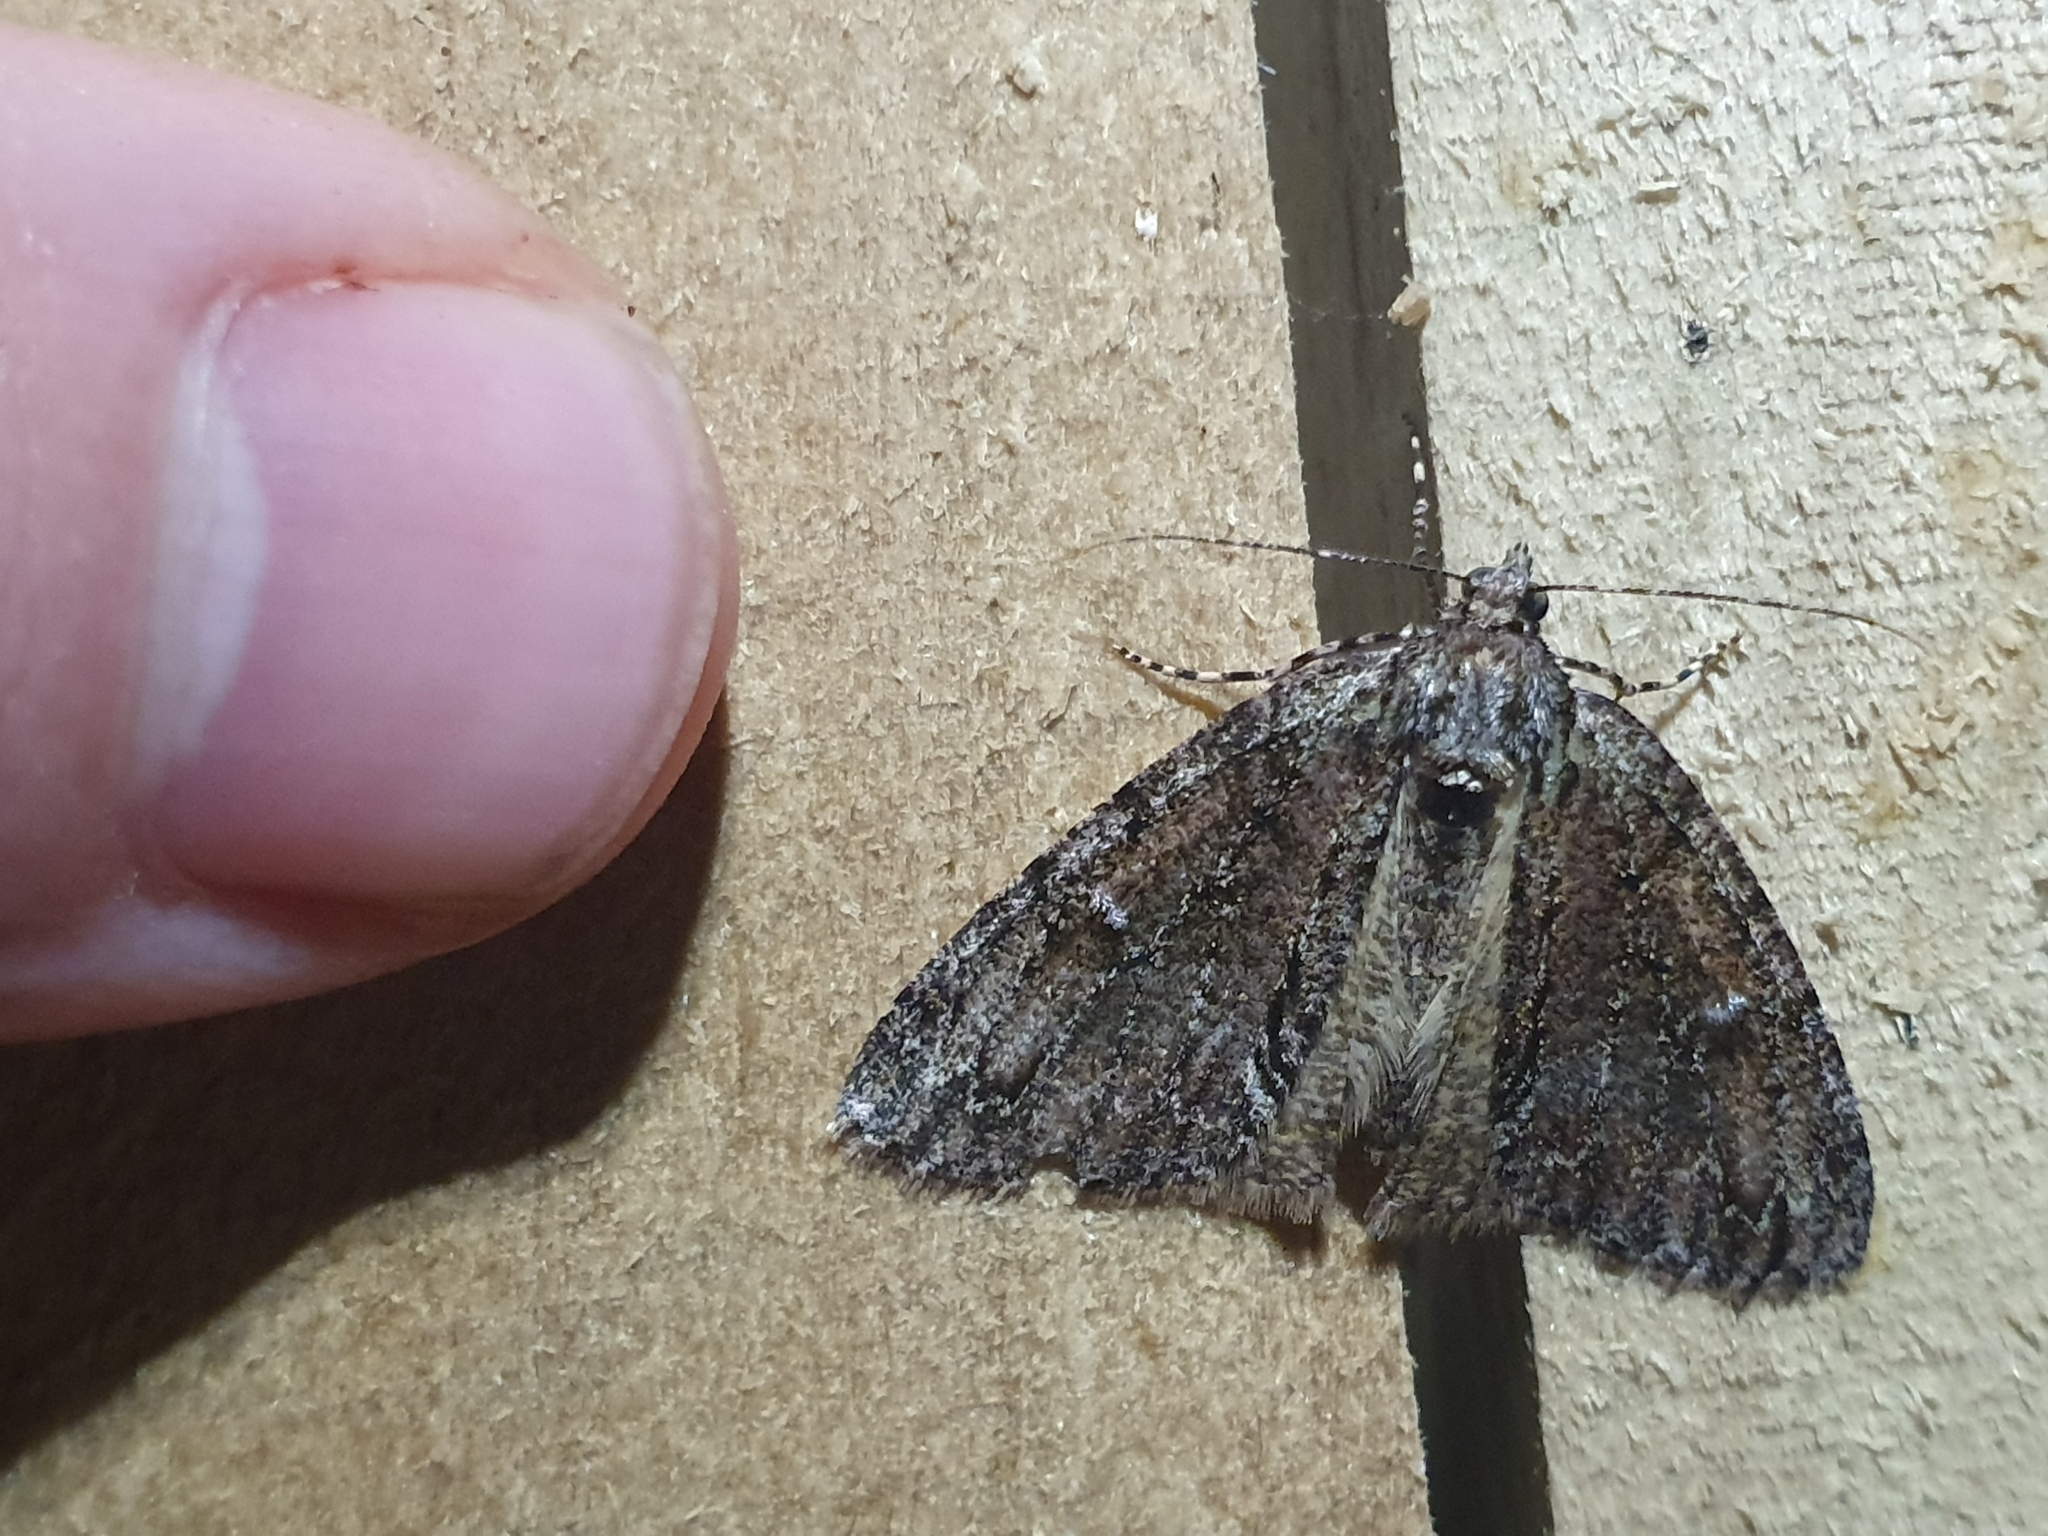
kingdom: Animalia
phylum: Arthropoda
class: Insecta
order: Lepidoptera
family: Geometridae
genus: Pseudocoremia
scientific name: Pseudocoremia suavis
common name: Common forest looper
